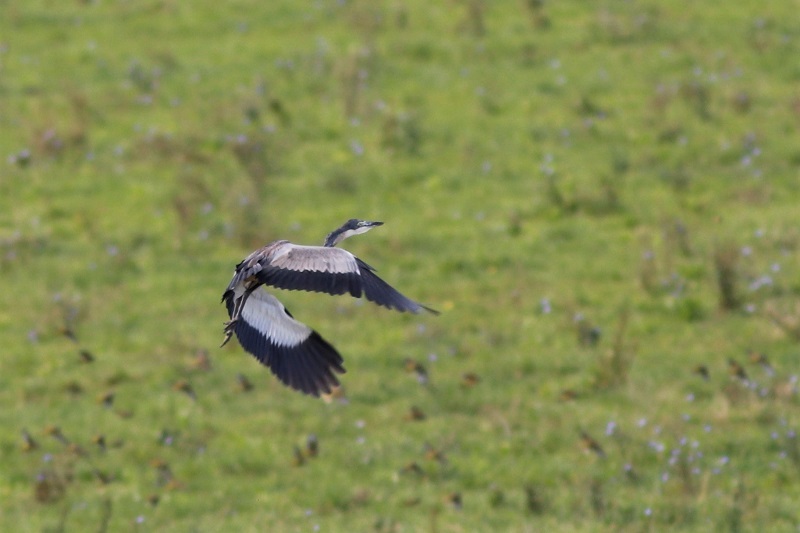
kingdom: Animalia
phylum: Chordata
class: Aves
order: Pelecaniformes
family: Ardeidae
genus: Ardea
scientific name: Ardea melanocephala
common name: Black-headed heron
